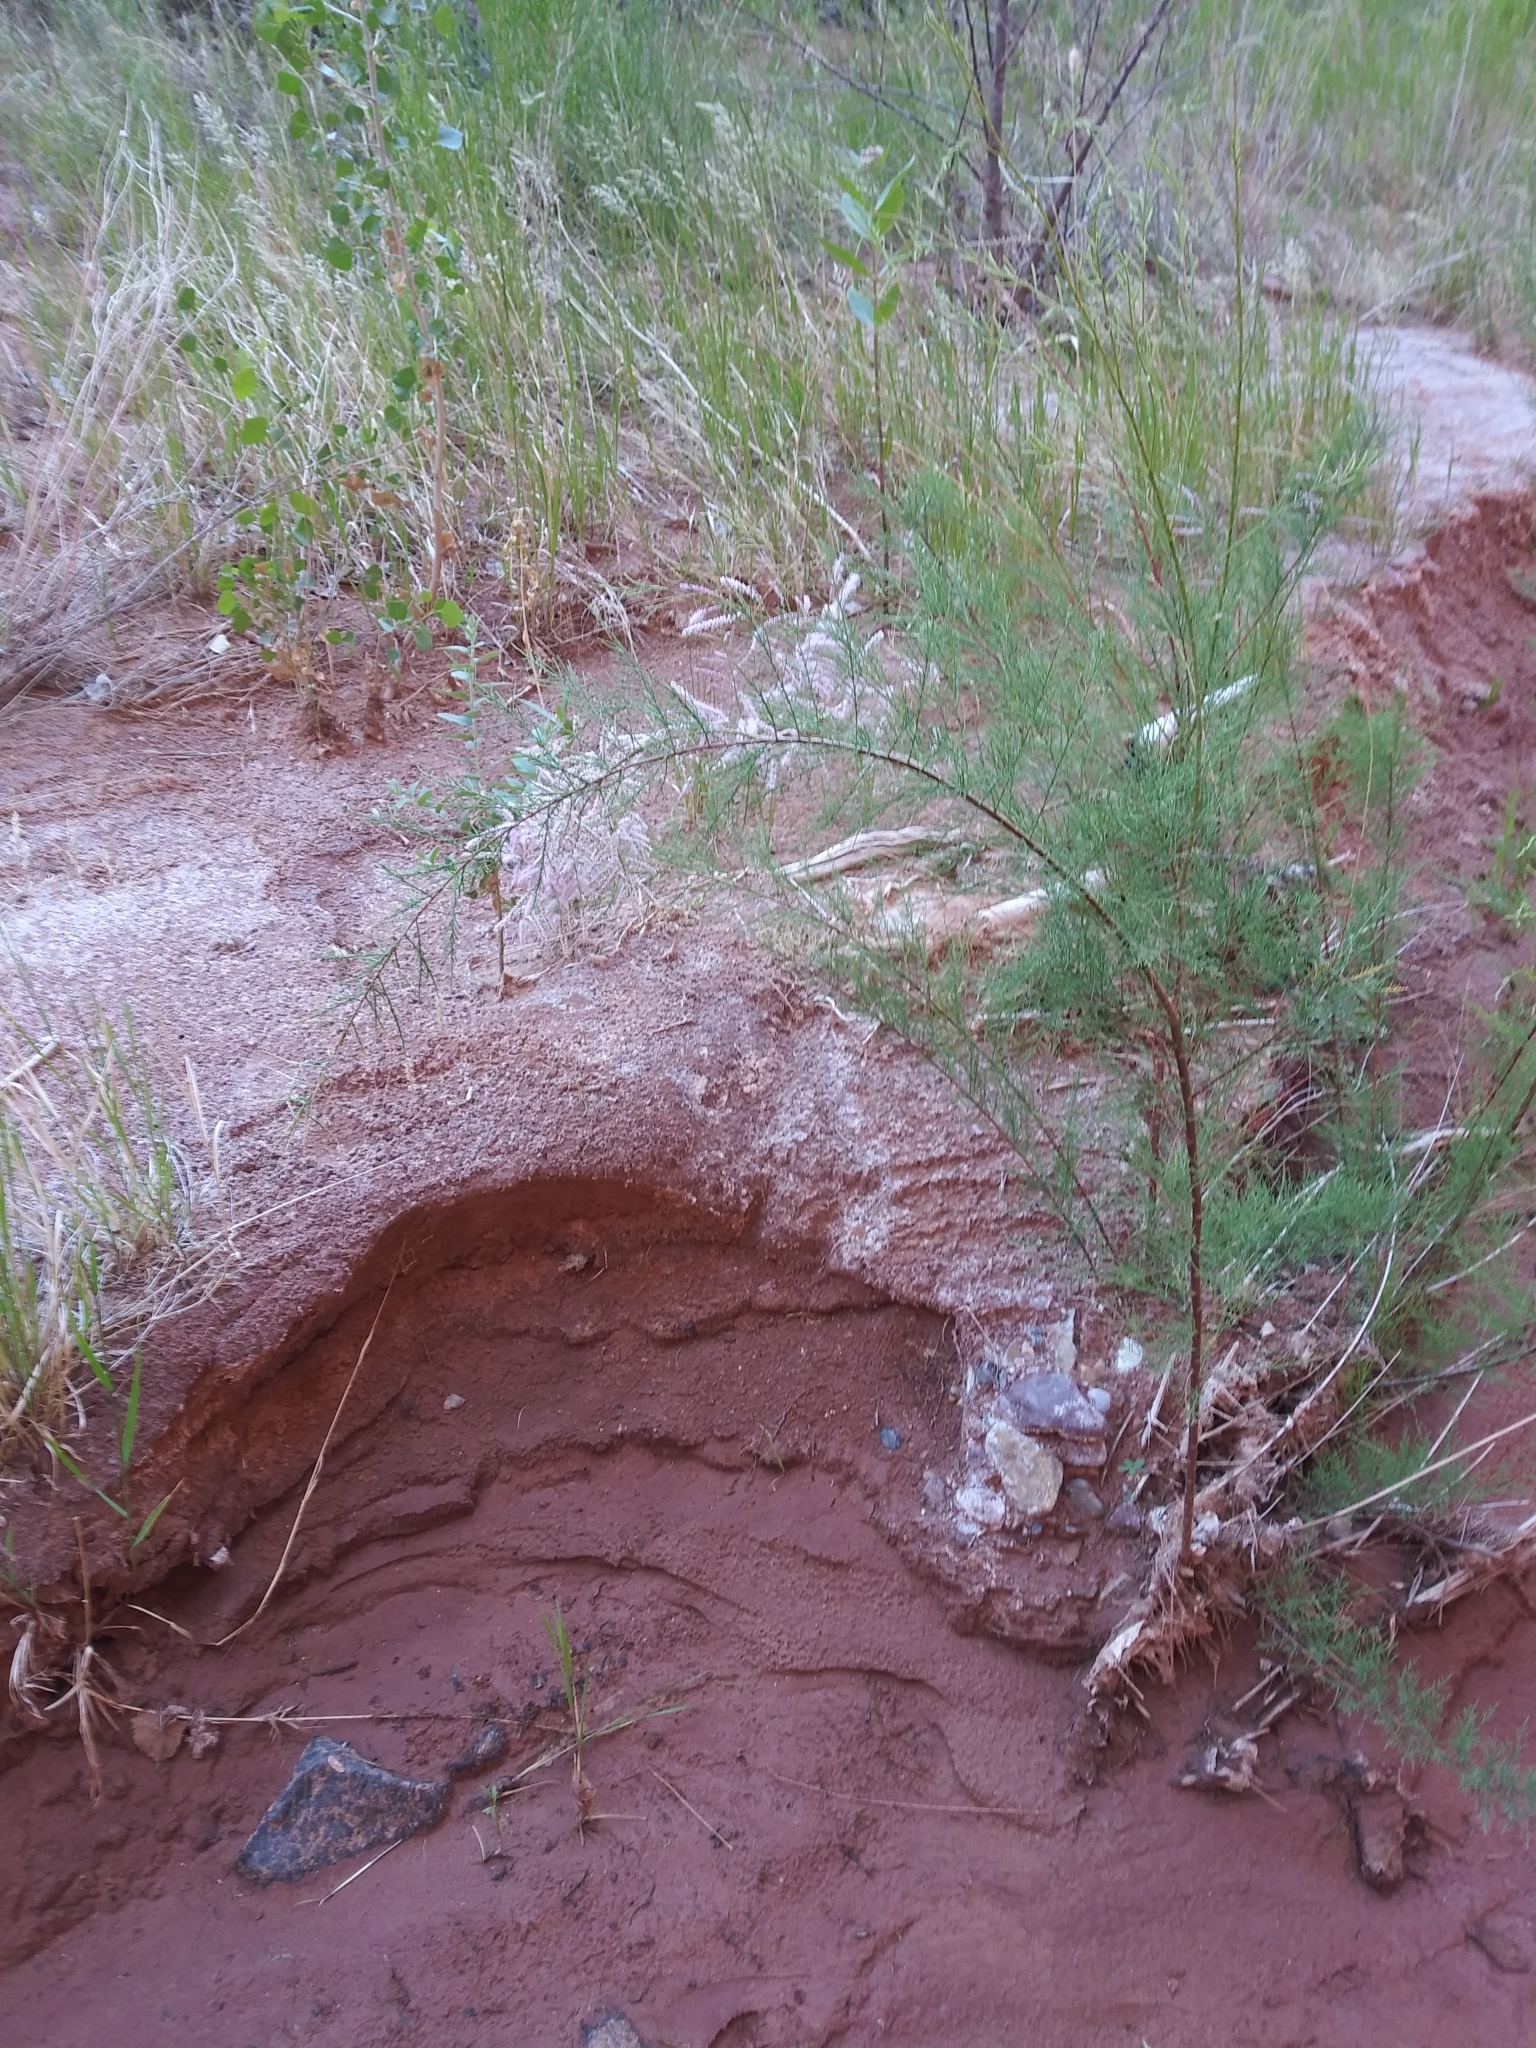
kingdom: Plantae
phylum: Tracheophyta
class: Magnoliopsida
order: Caryophyllales
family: Tamaricaceae
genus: Tamarix
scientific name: Tamarix ramosissima
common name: Pink tamarisk
